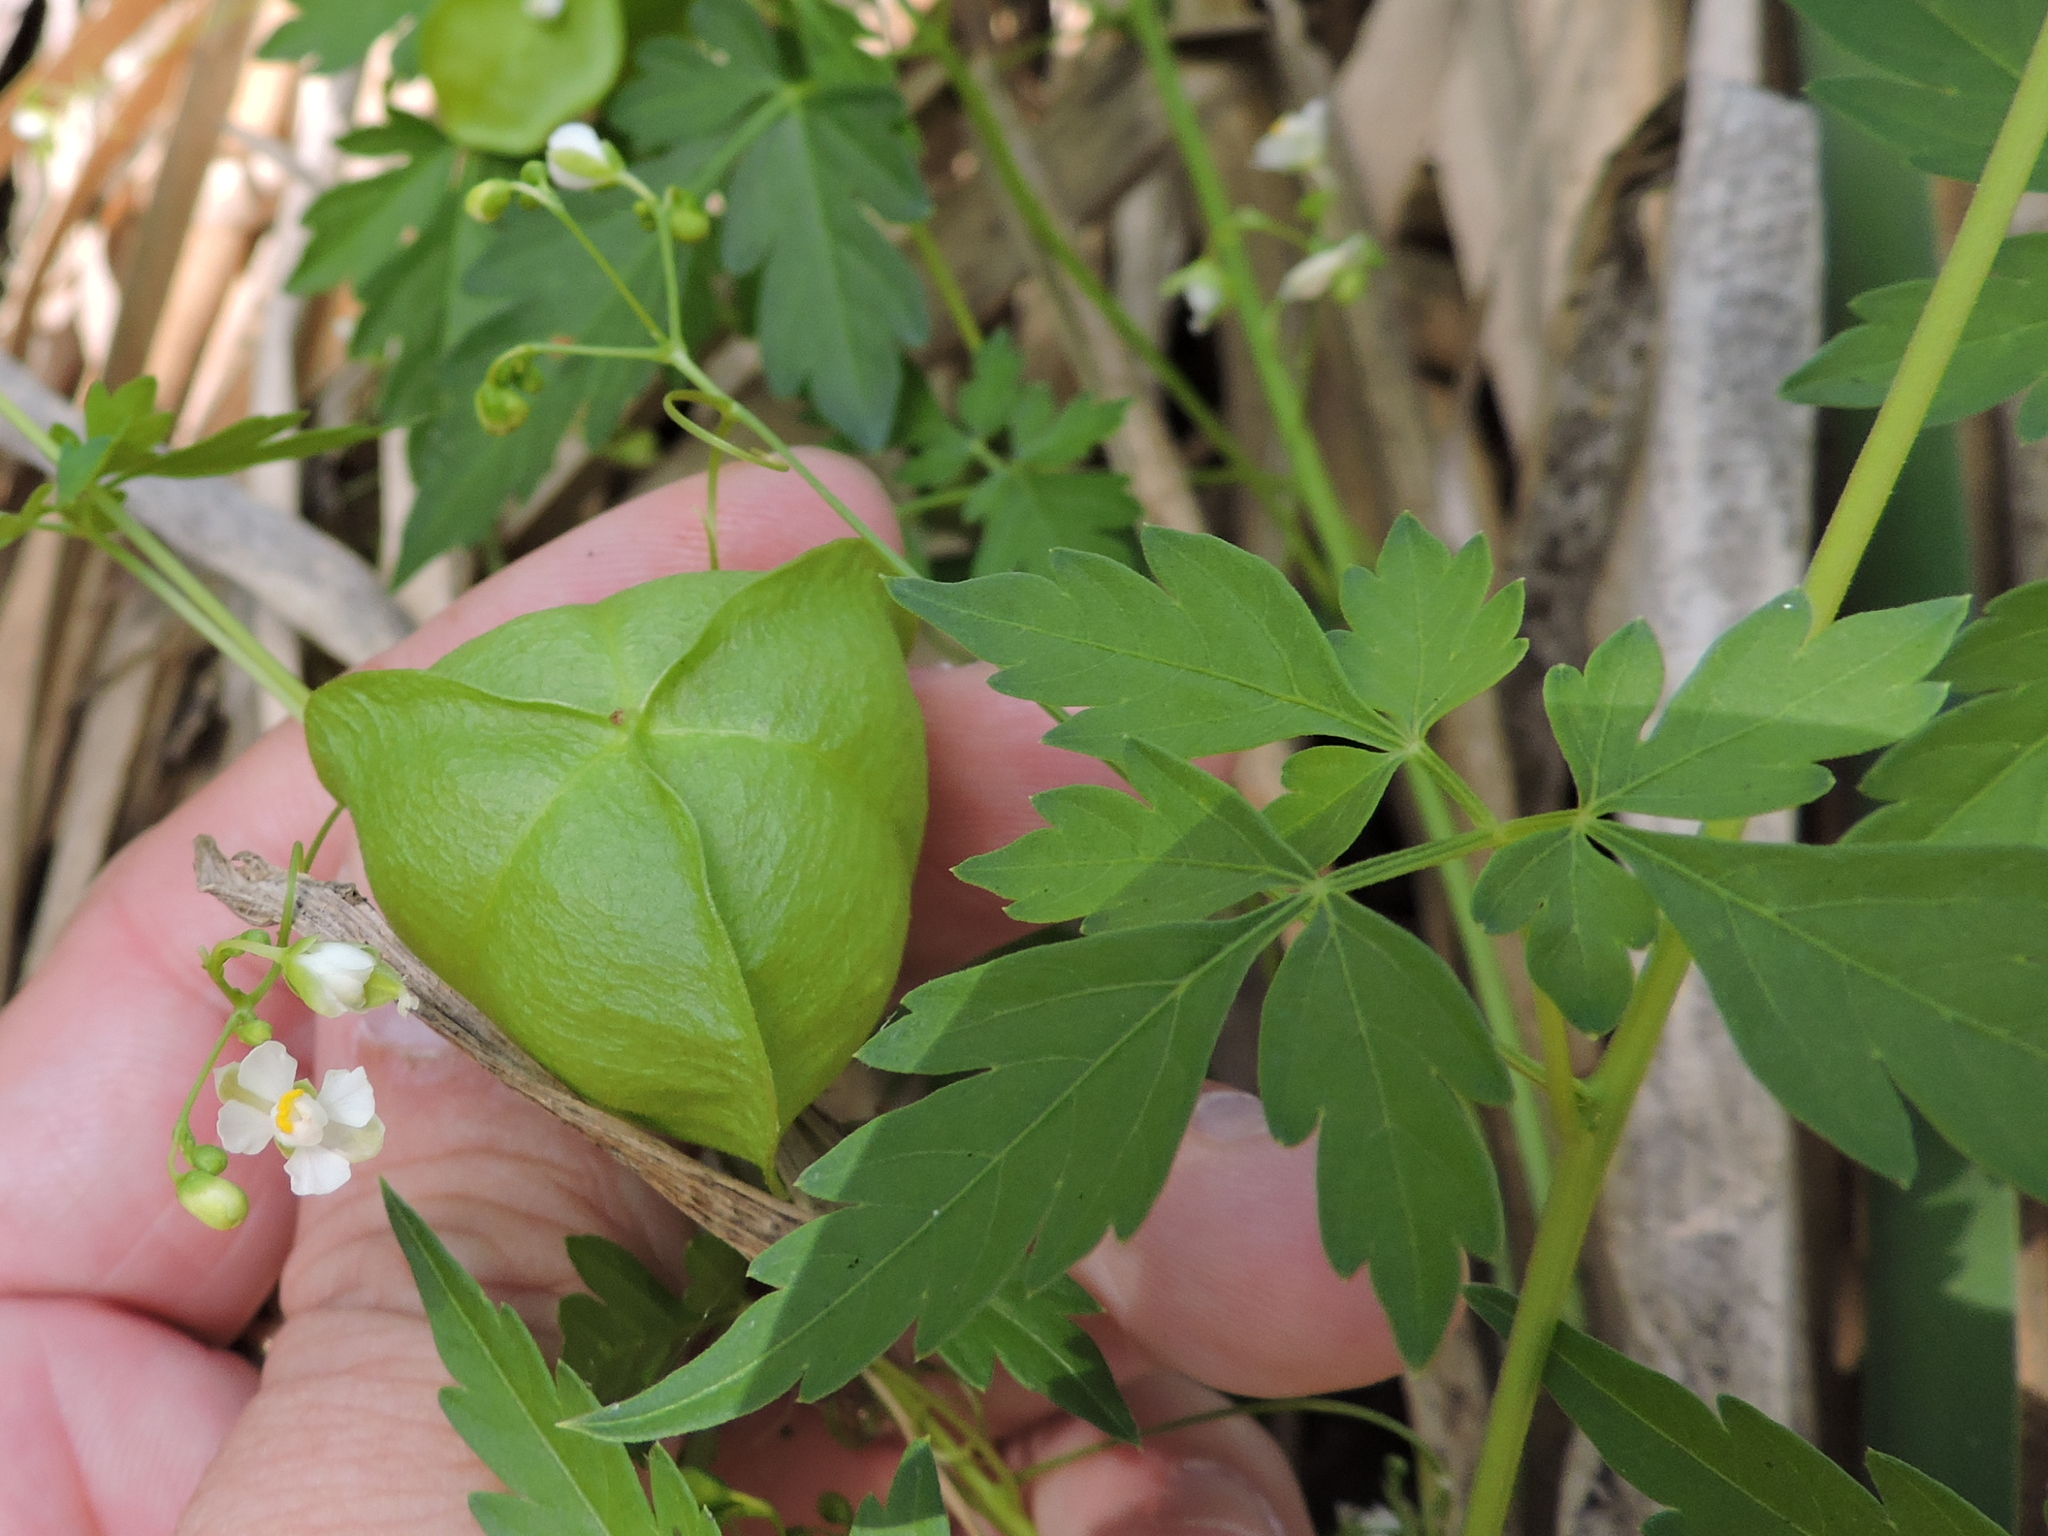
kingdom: Plantae
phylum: Tracheophyta
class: Magnoliopsida
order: Sapindales
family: Sapindaceae
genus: Cardiospermum
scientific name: Cardiospermum halicacabum
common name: Balloon vine
